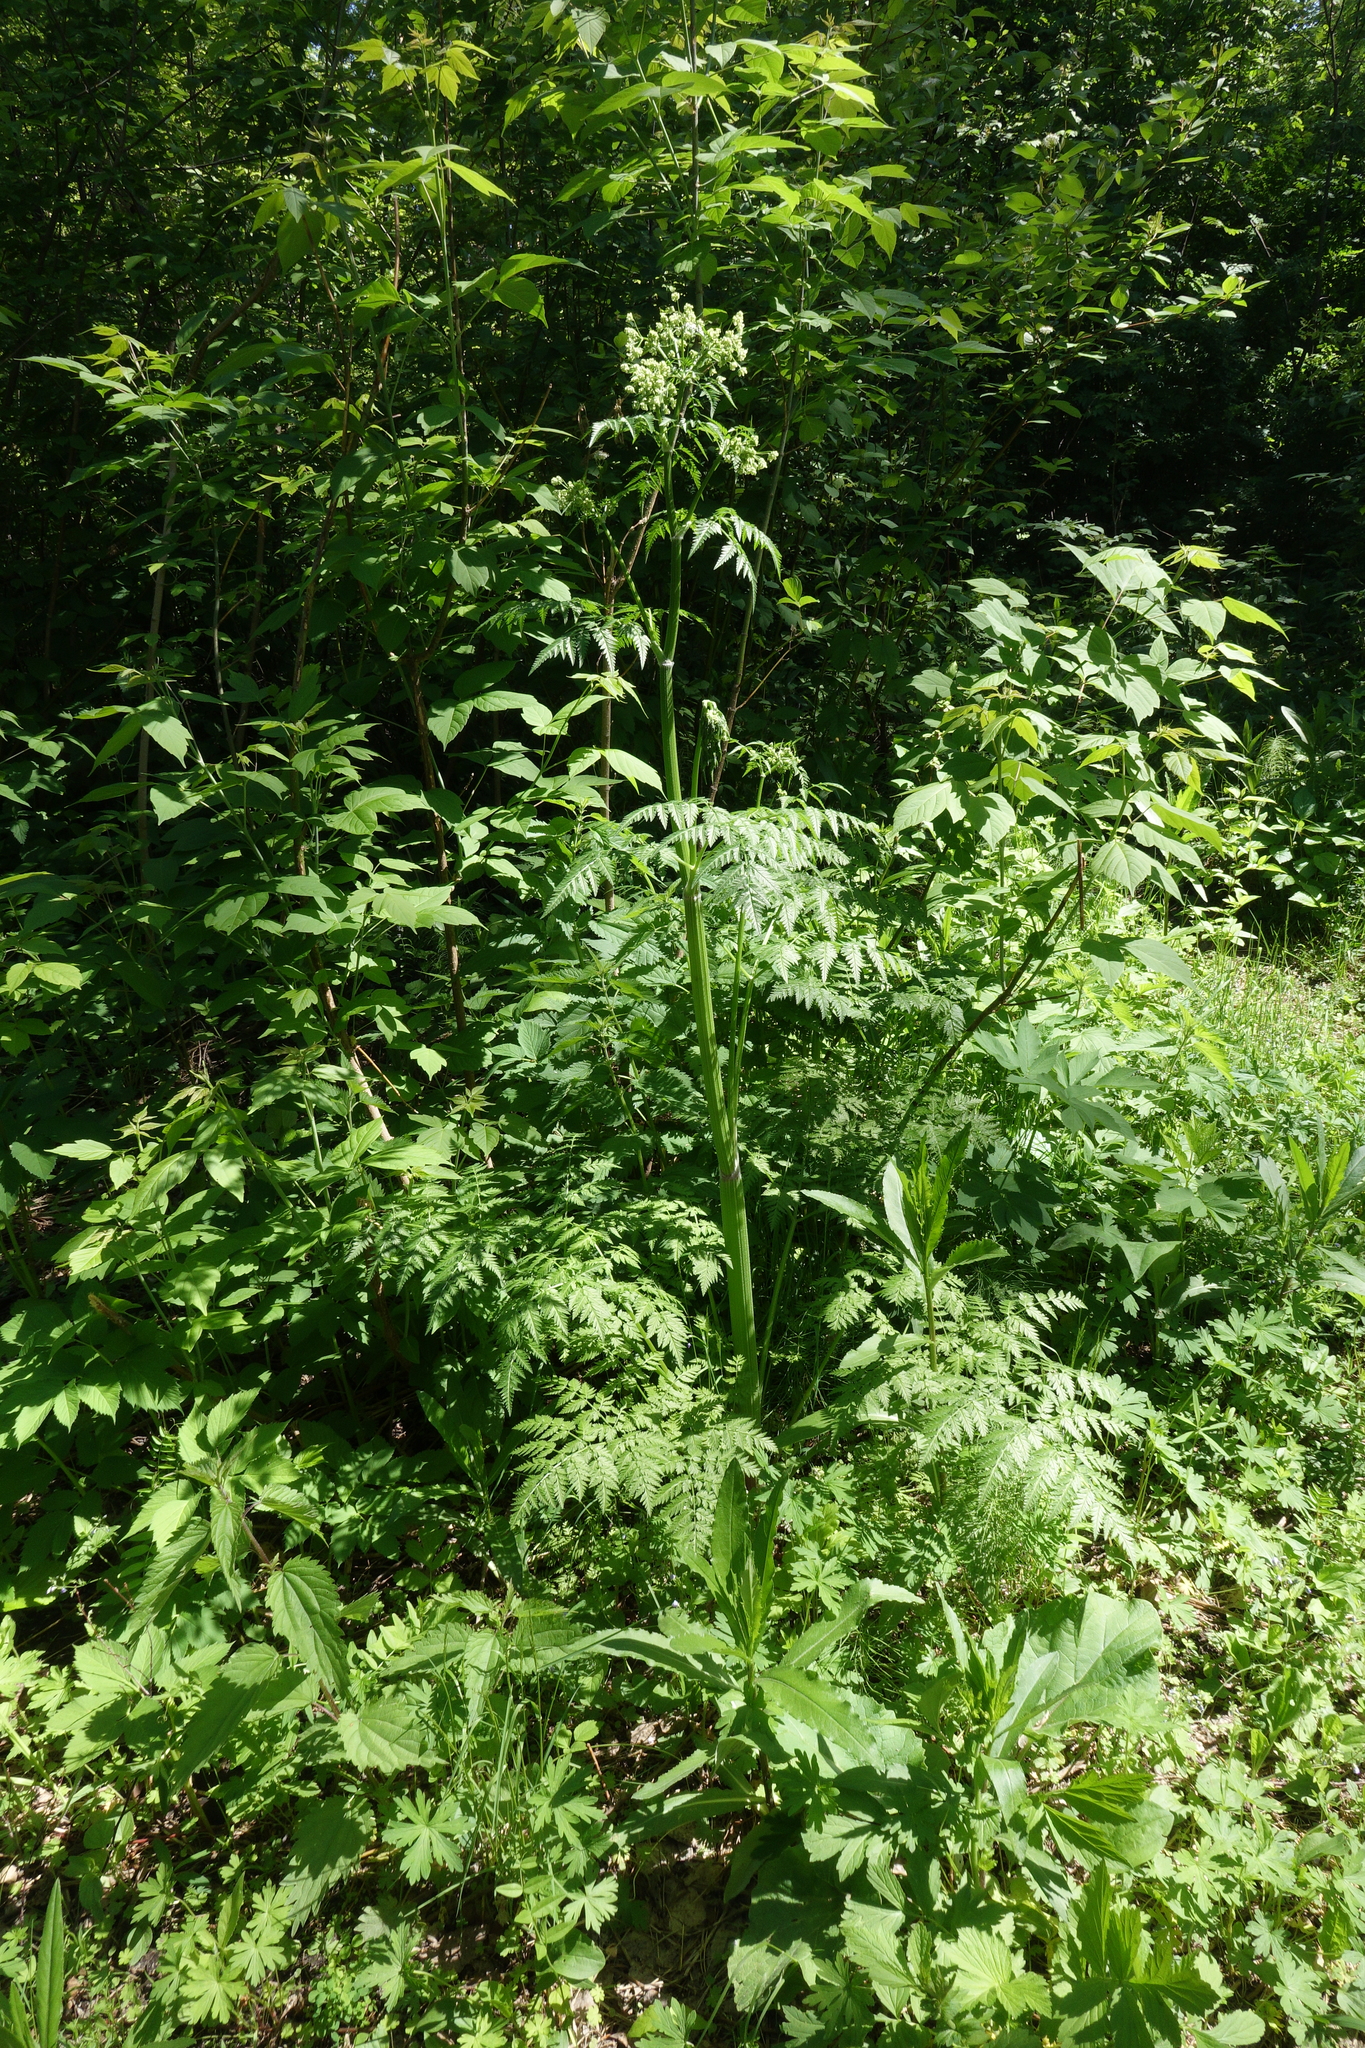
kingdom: Plantae
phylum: Tracheophyta
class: Magnoliopsida
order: Apiales
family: Apiaceae
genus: Anthriscus
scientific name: Anthriscus sylvestris
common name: Cow parsley
